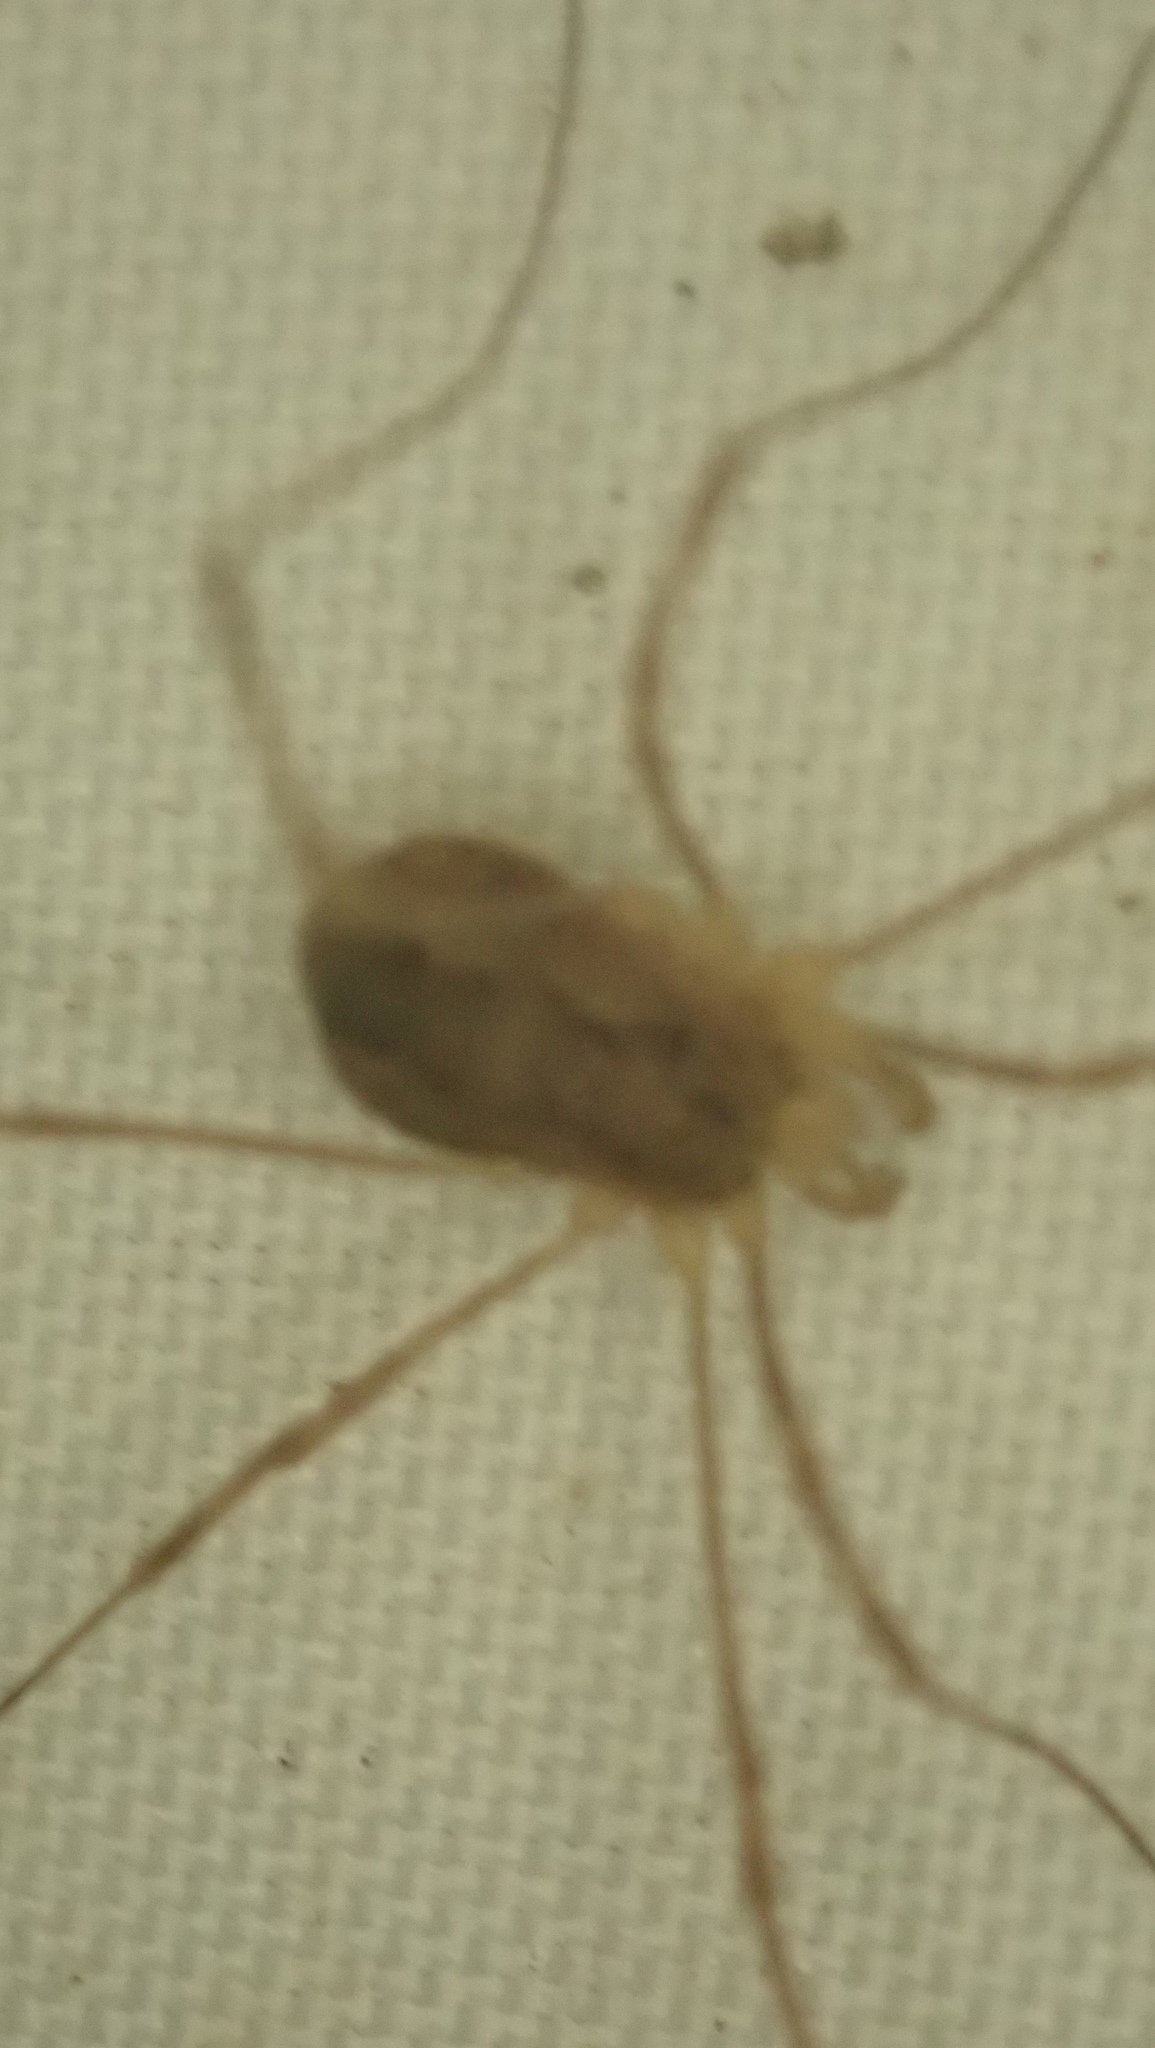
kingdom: Animalia
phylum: Arthropoda
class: Arachnida
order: Opiliones
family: Phalangiidae
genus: Rilaena
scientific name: Rilaena triangularis
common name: Spring harvestman
